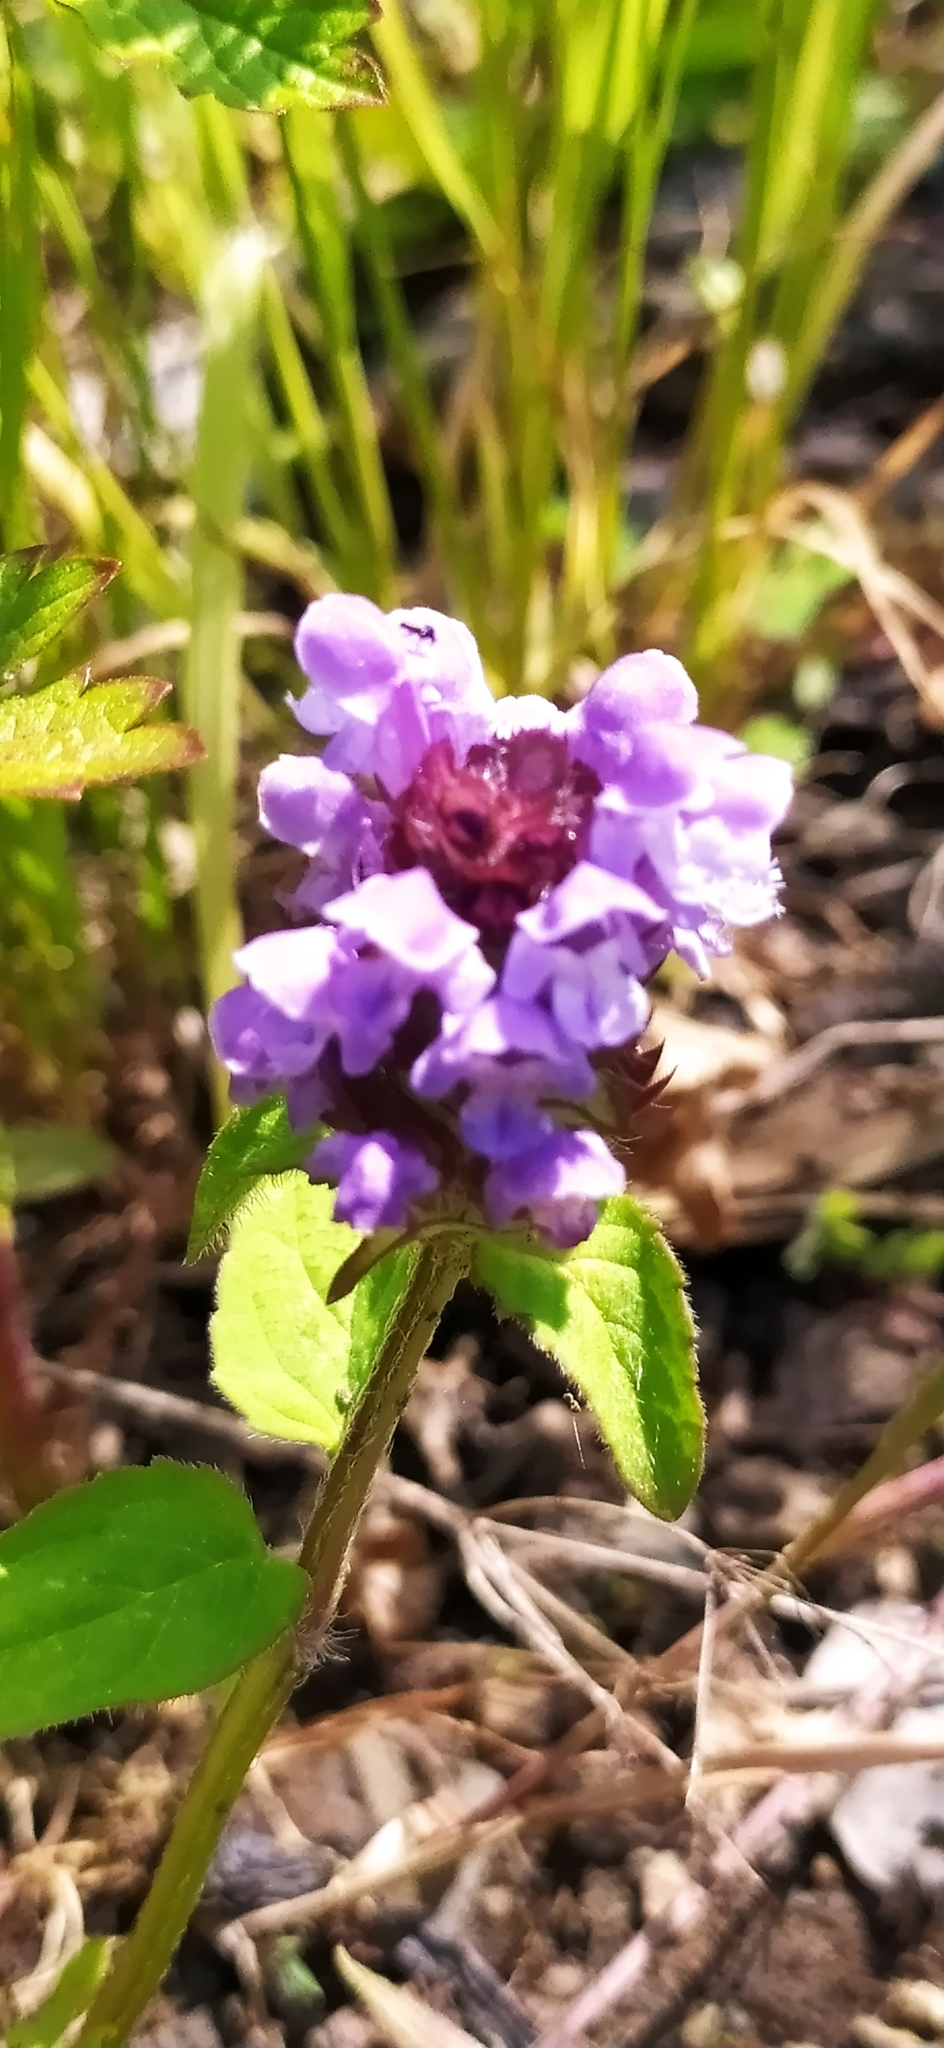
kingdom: Plantae
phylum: Tracheophyta
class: Magnoliopsida
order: Lamiales
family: Lamiaceae
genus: Prunella
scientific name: Prunella vulgaris
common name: Heal-all
